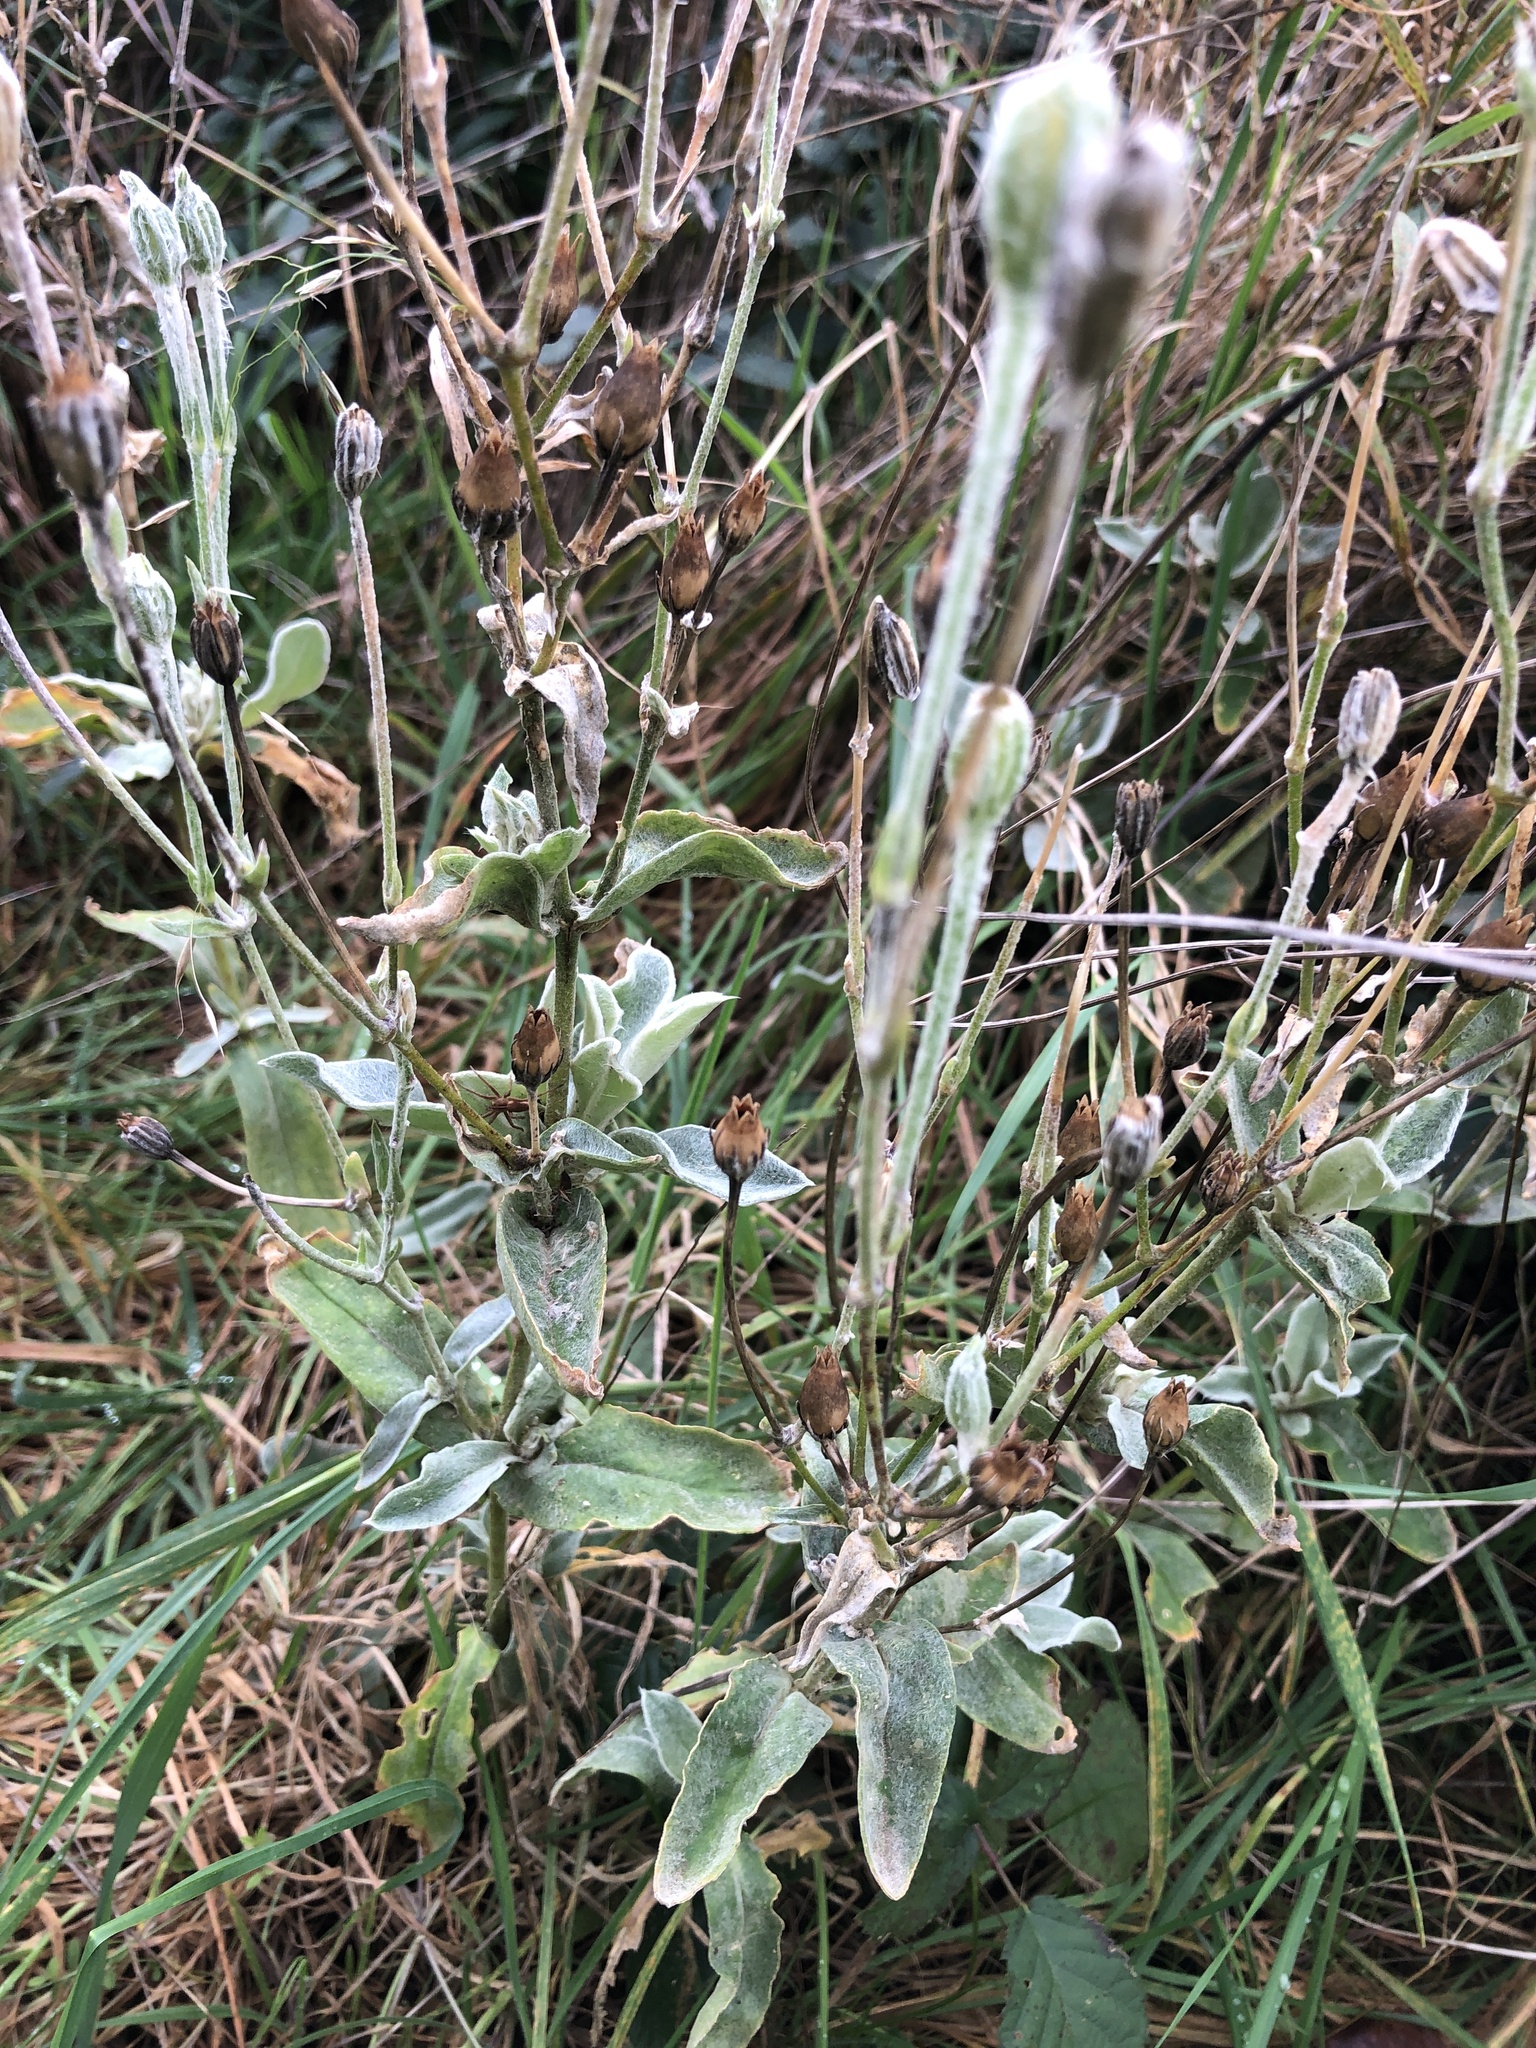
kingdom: Plantae
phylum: Tracheophyta
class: Magnoliopsida
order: Caryophyllales
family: Caryophyllaceae
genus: Silene
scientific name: Silene coronaria
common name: Rose campion
